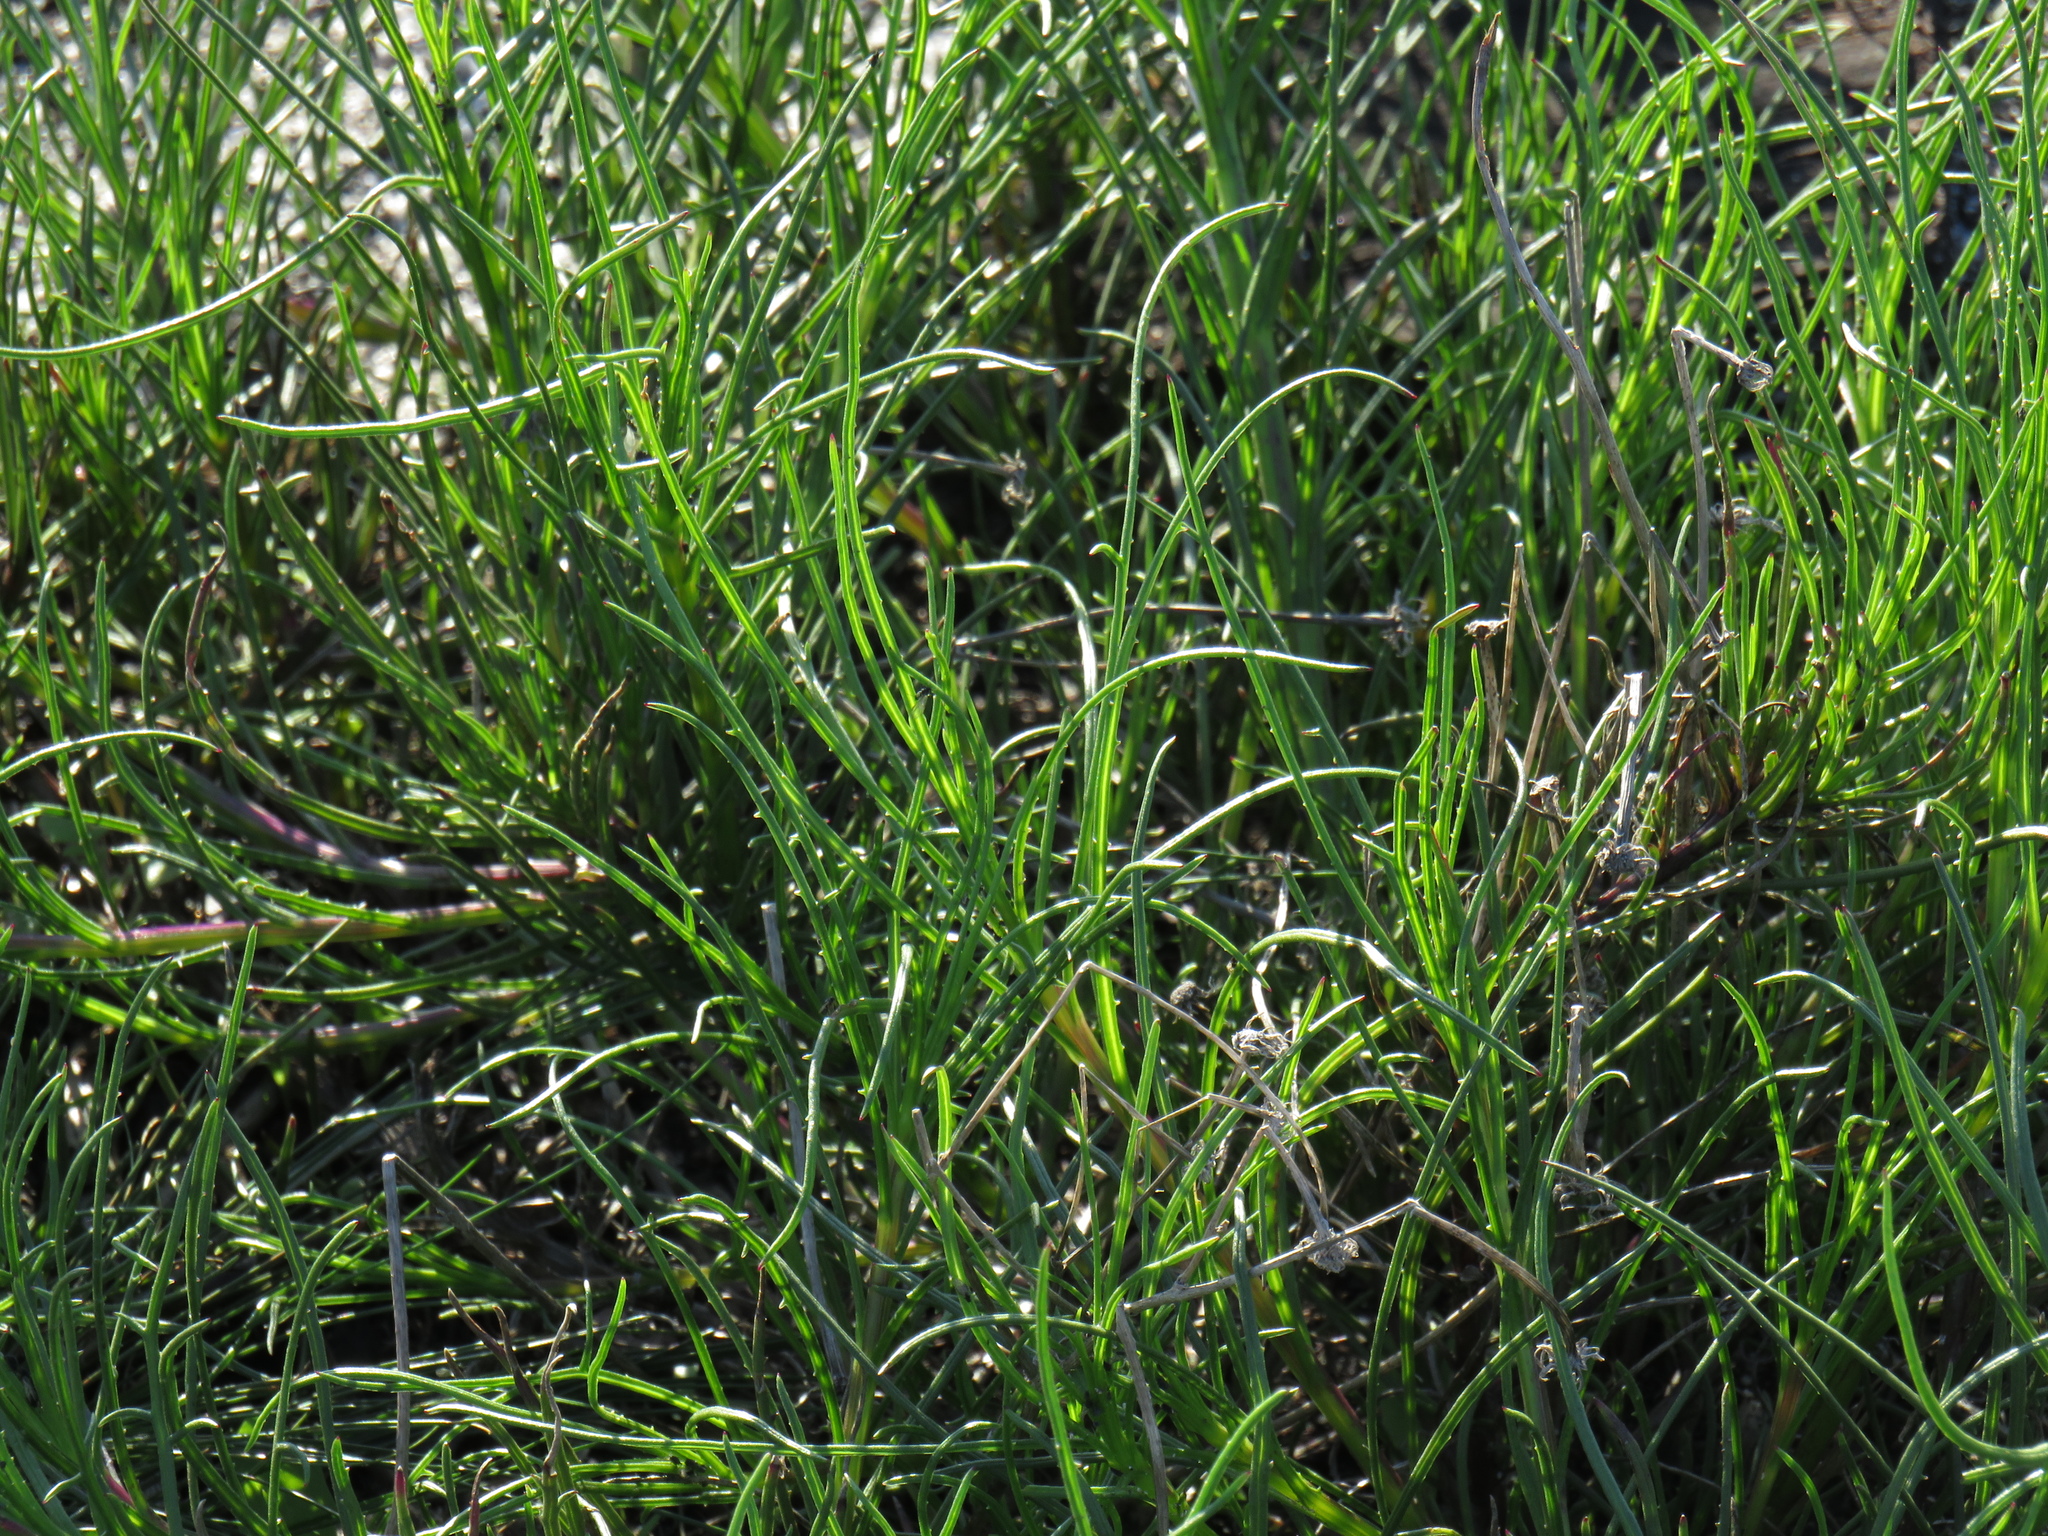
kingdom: Plantae
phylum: Tracheophyta
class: Magnoliopsida
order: Asterales
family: Asteraceae
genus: Senecio
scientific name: Senecio umbellatus
